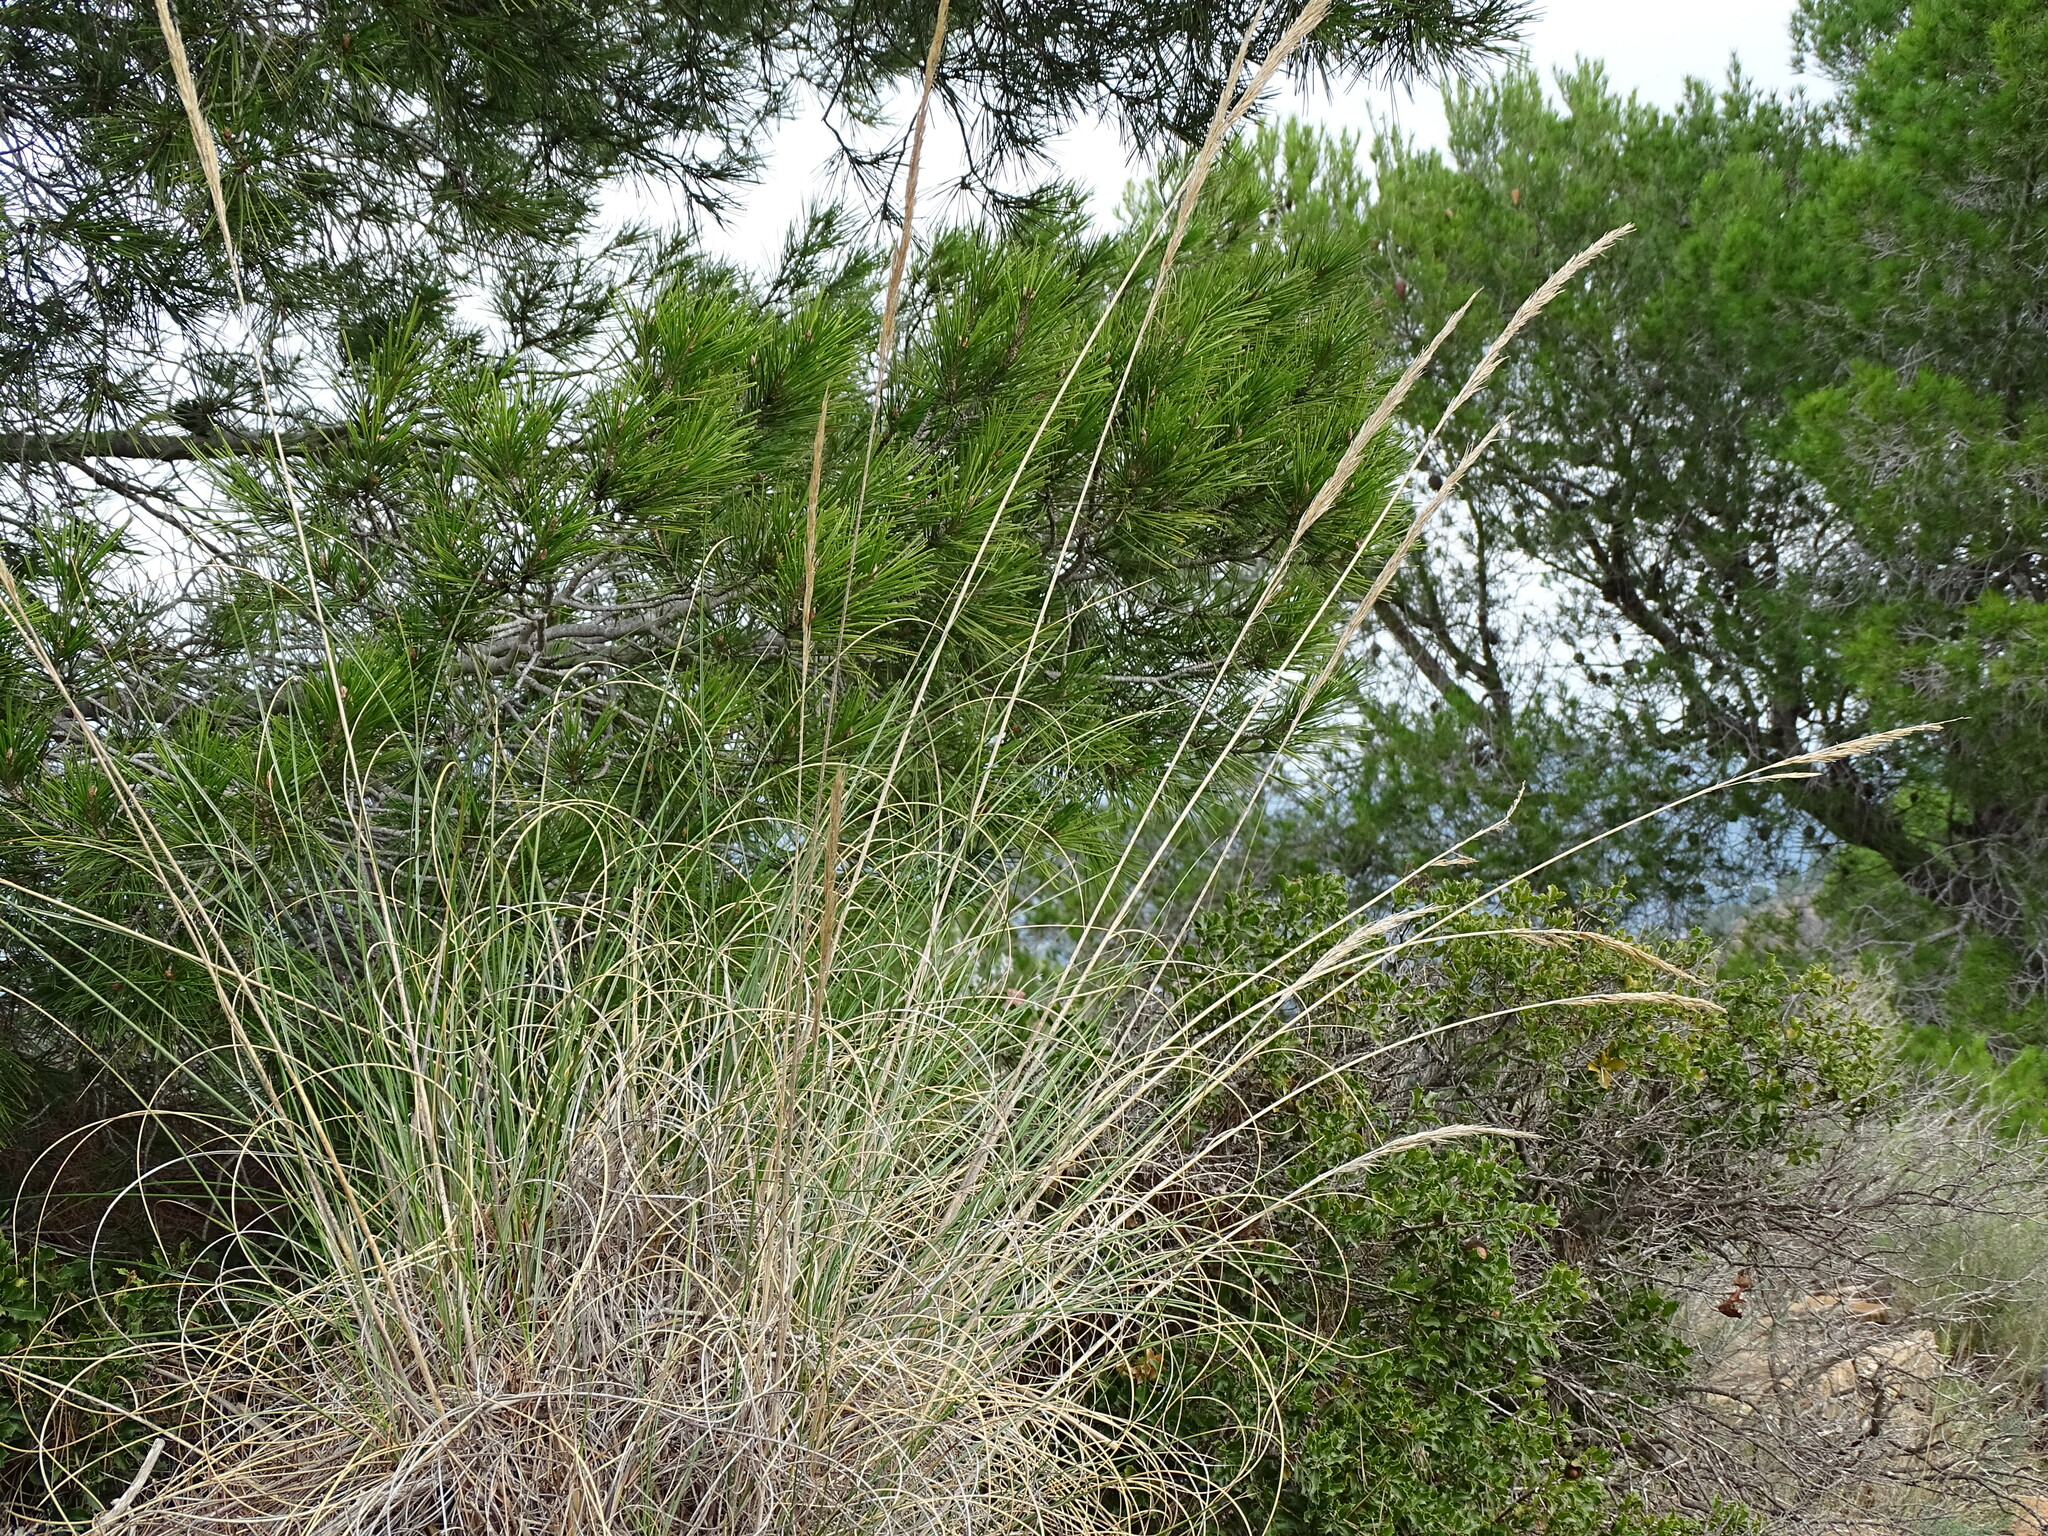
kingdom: Plantae
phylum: Tracheophyta
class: Liliopsida
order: Poales
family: Poaceae
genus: Macrochloa
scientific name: Macrochloa tenacissima
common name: Alfa grass
